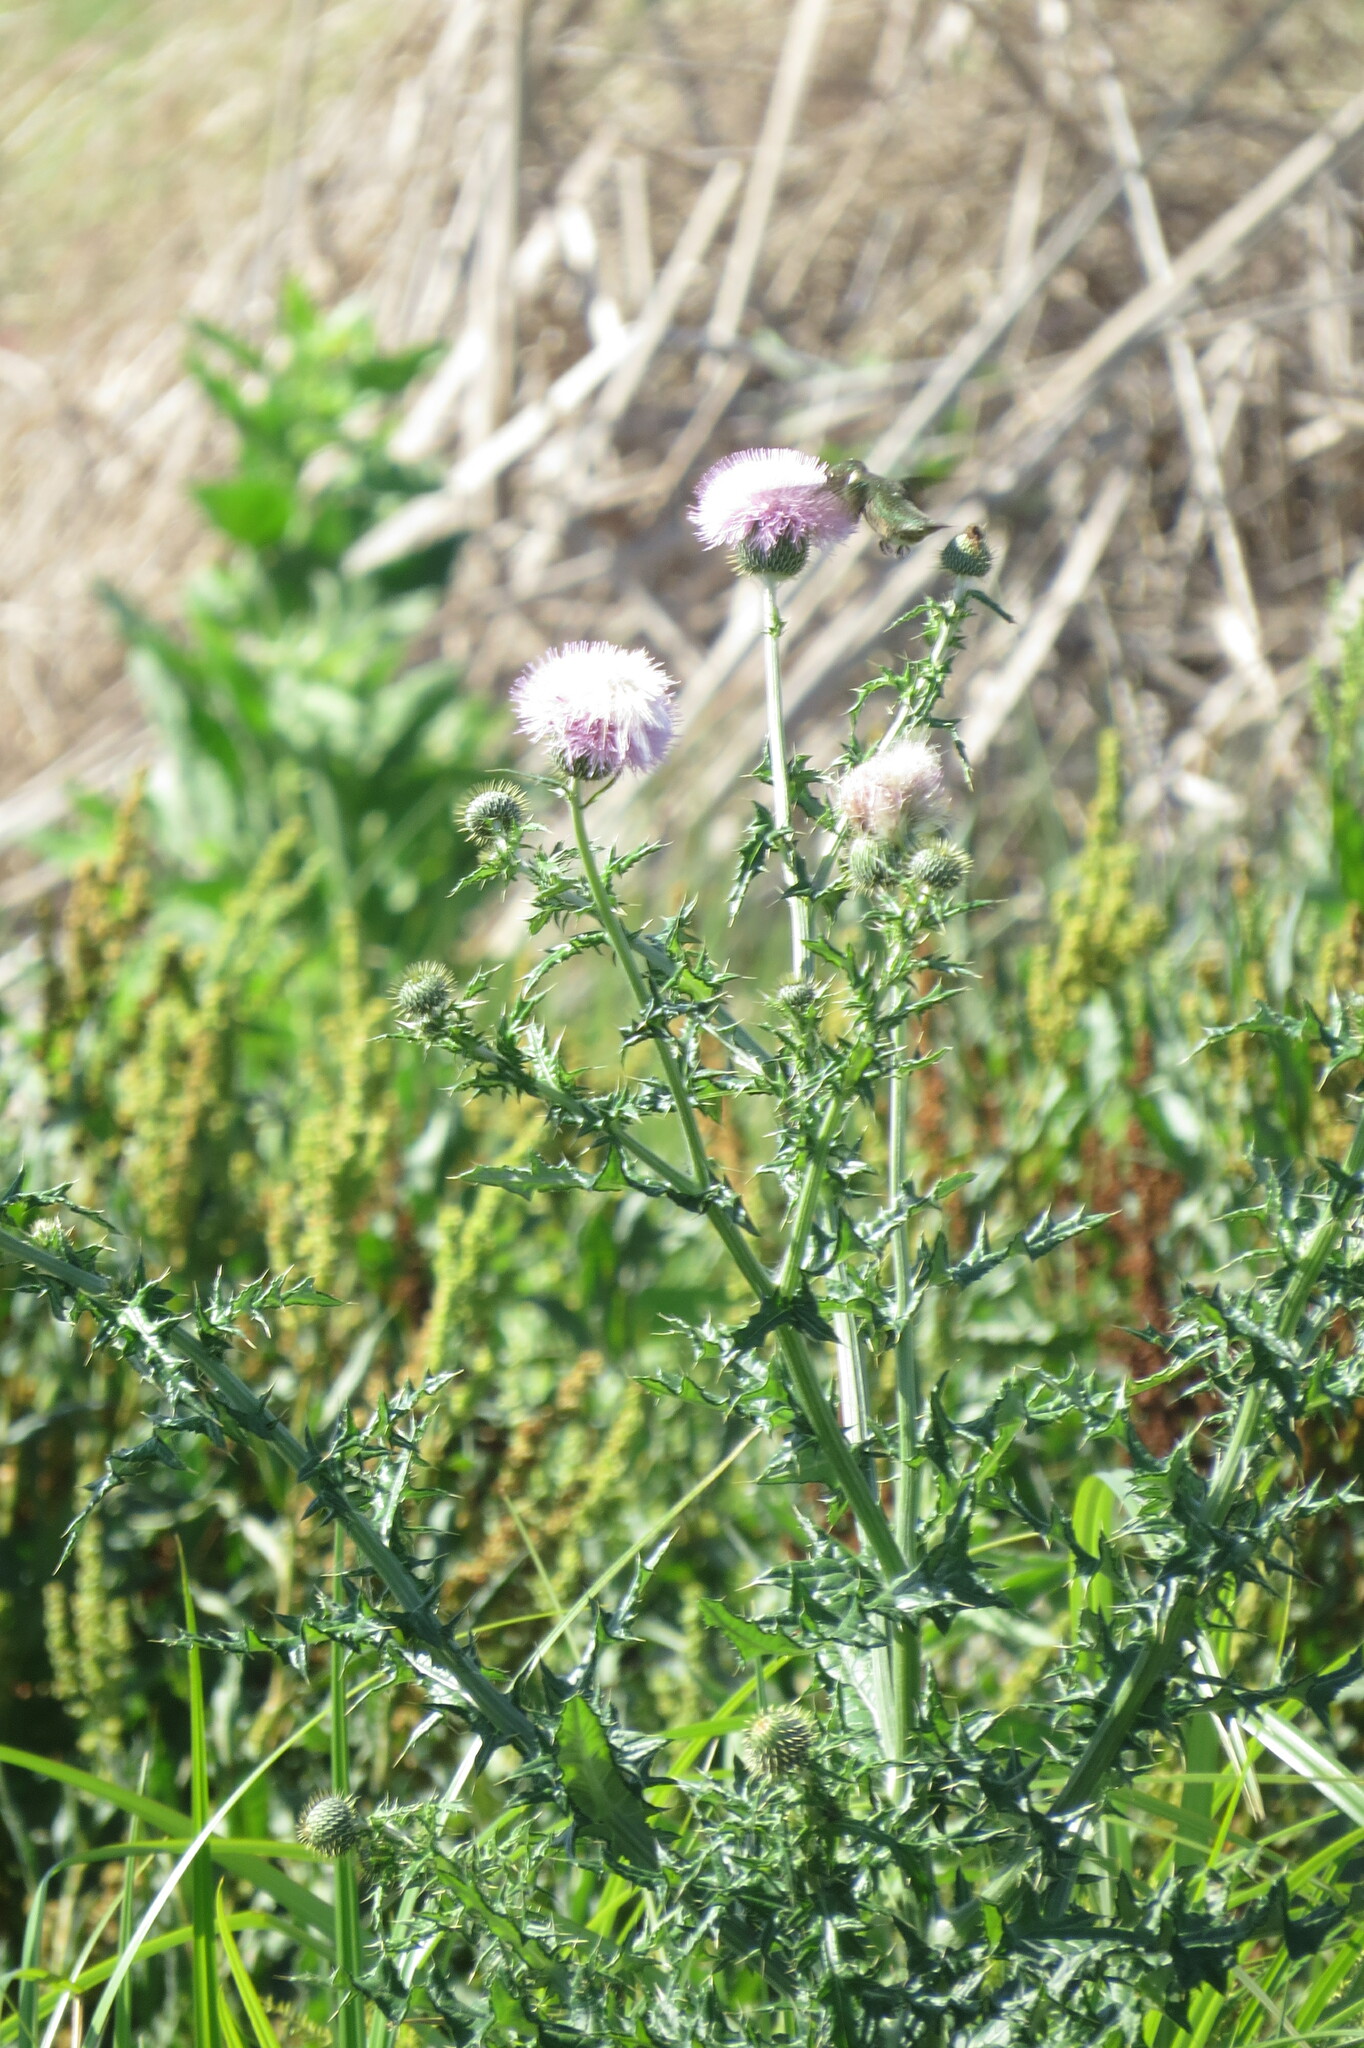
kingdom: Plantae
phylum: Tracheophyta
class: Magnoliopsida
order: Asterales
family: Asteraceae
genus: Cirsium
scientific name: Cirsium texanum
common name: Texas purple thistle
